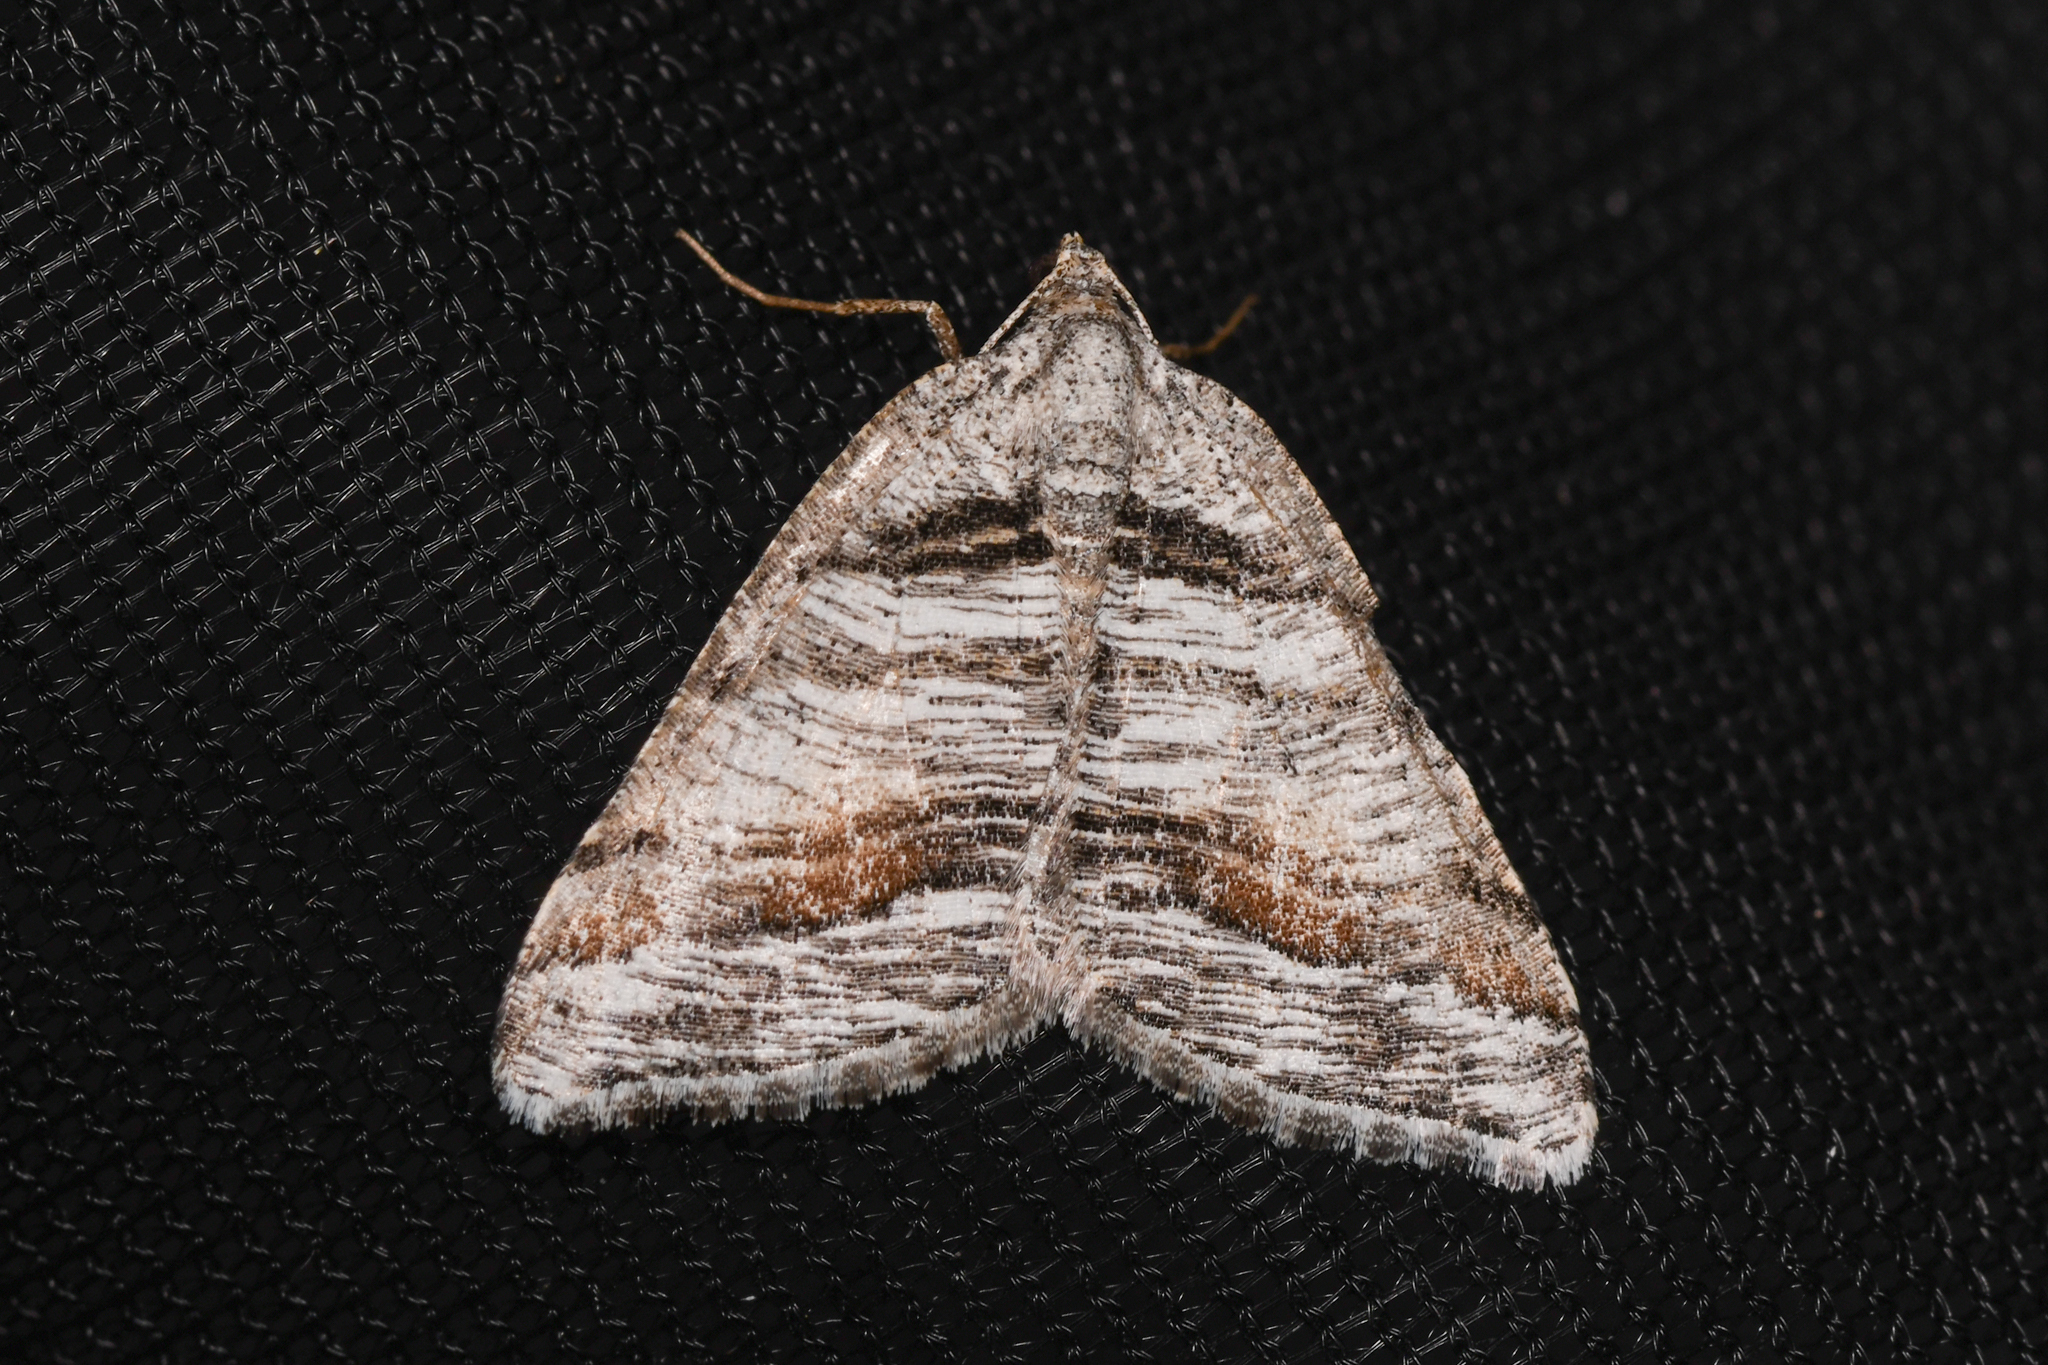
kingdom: Animalia
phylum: Arthropoda
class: Insecta
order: Lepidoptera
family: Geometridae
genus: Macaria
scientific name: Macaria colata
